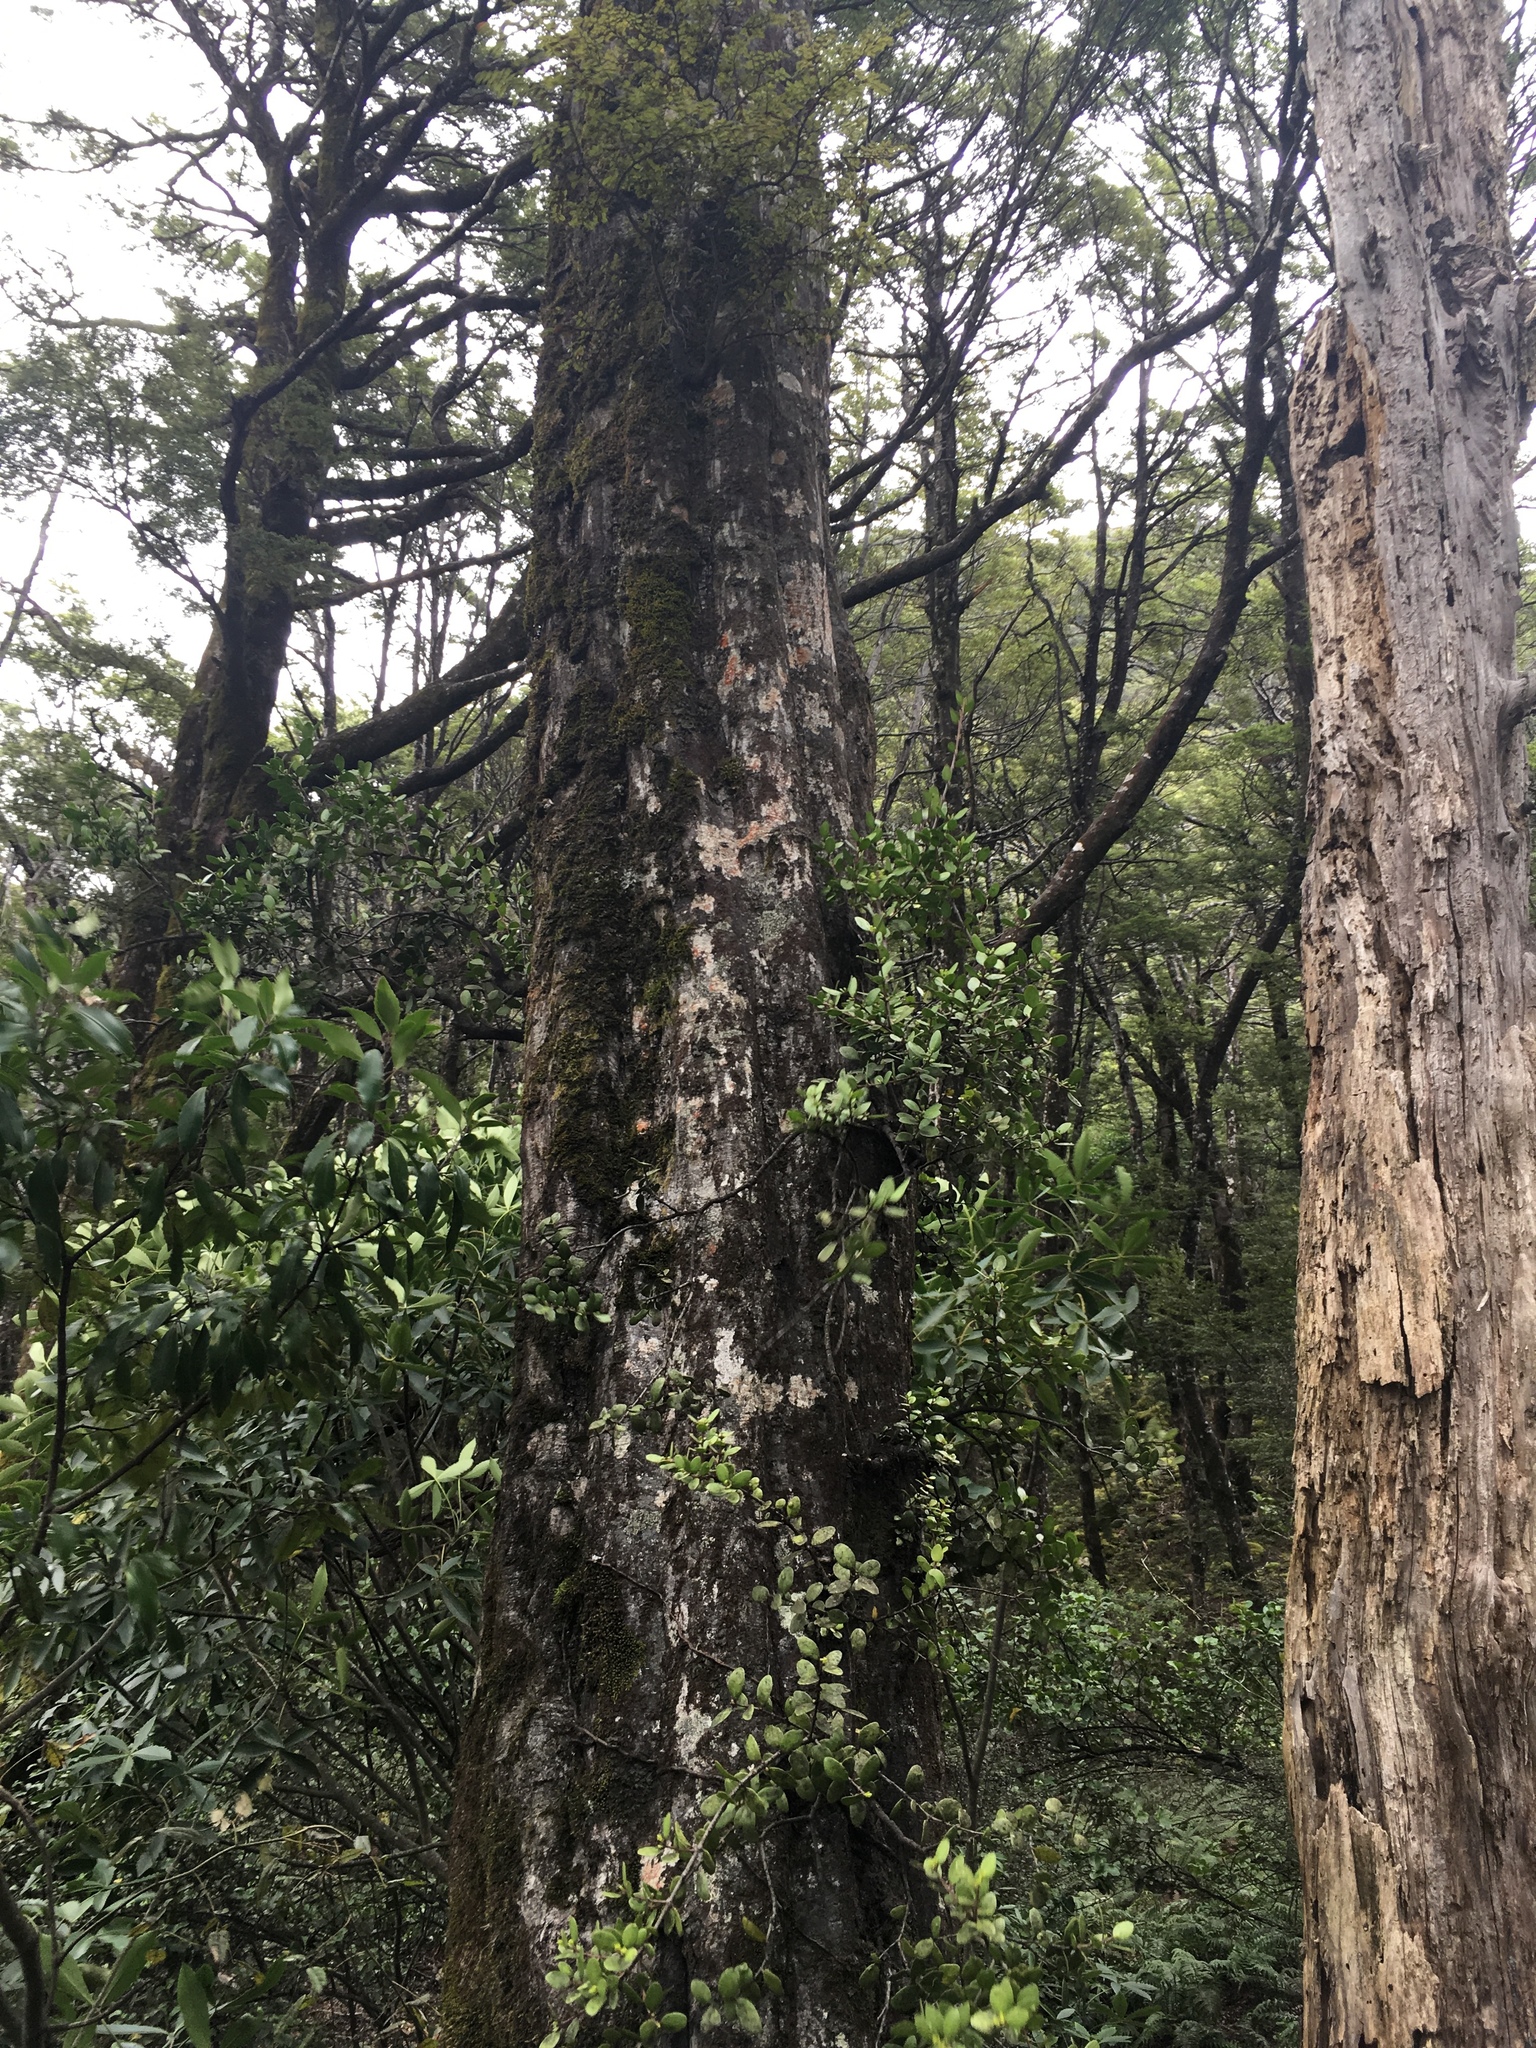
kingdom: Plantae
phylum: Tracheophyta
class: Magnoliopsida
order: Santalales
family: Loranthaceae
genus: Peraxilla
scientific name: Peraxilla tetrapetala
